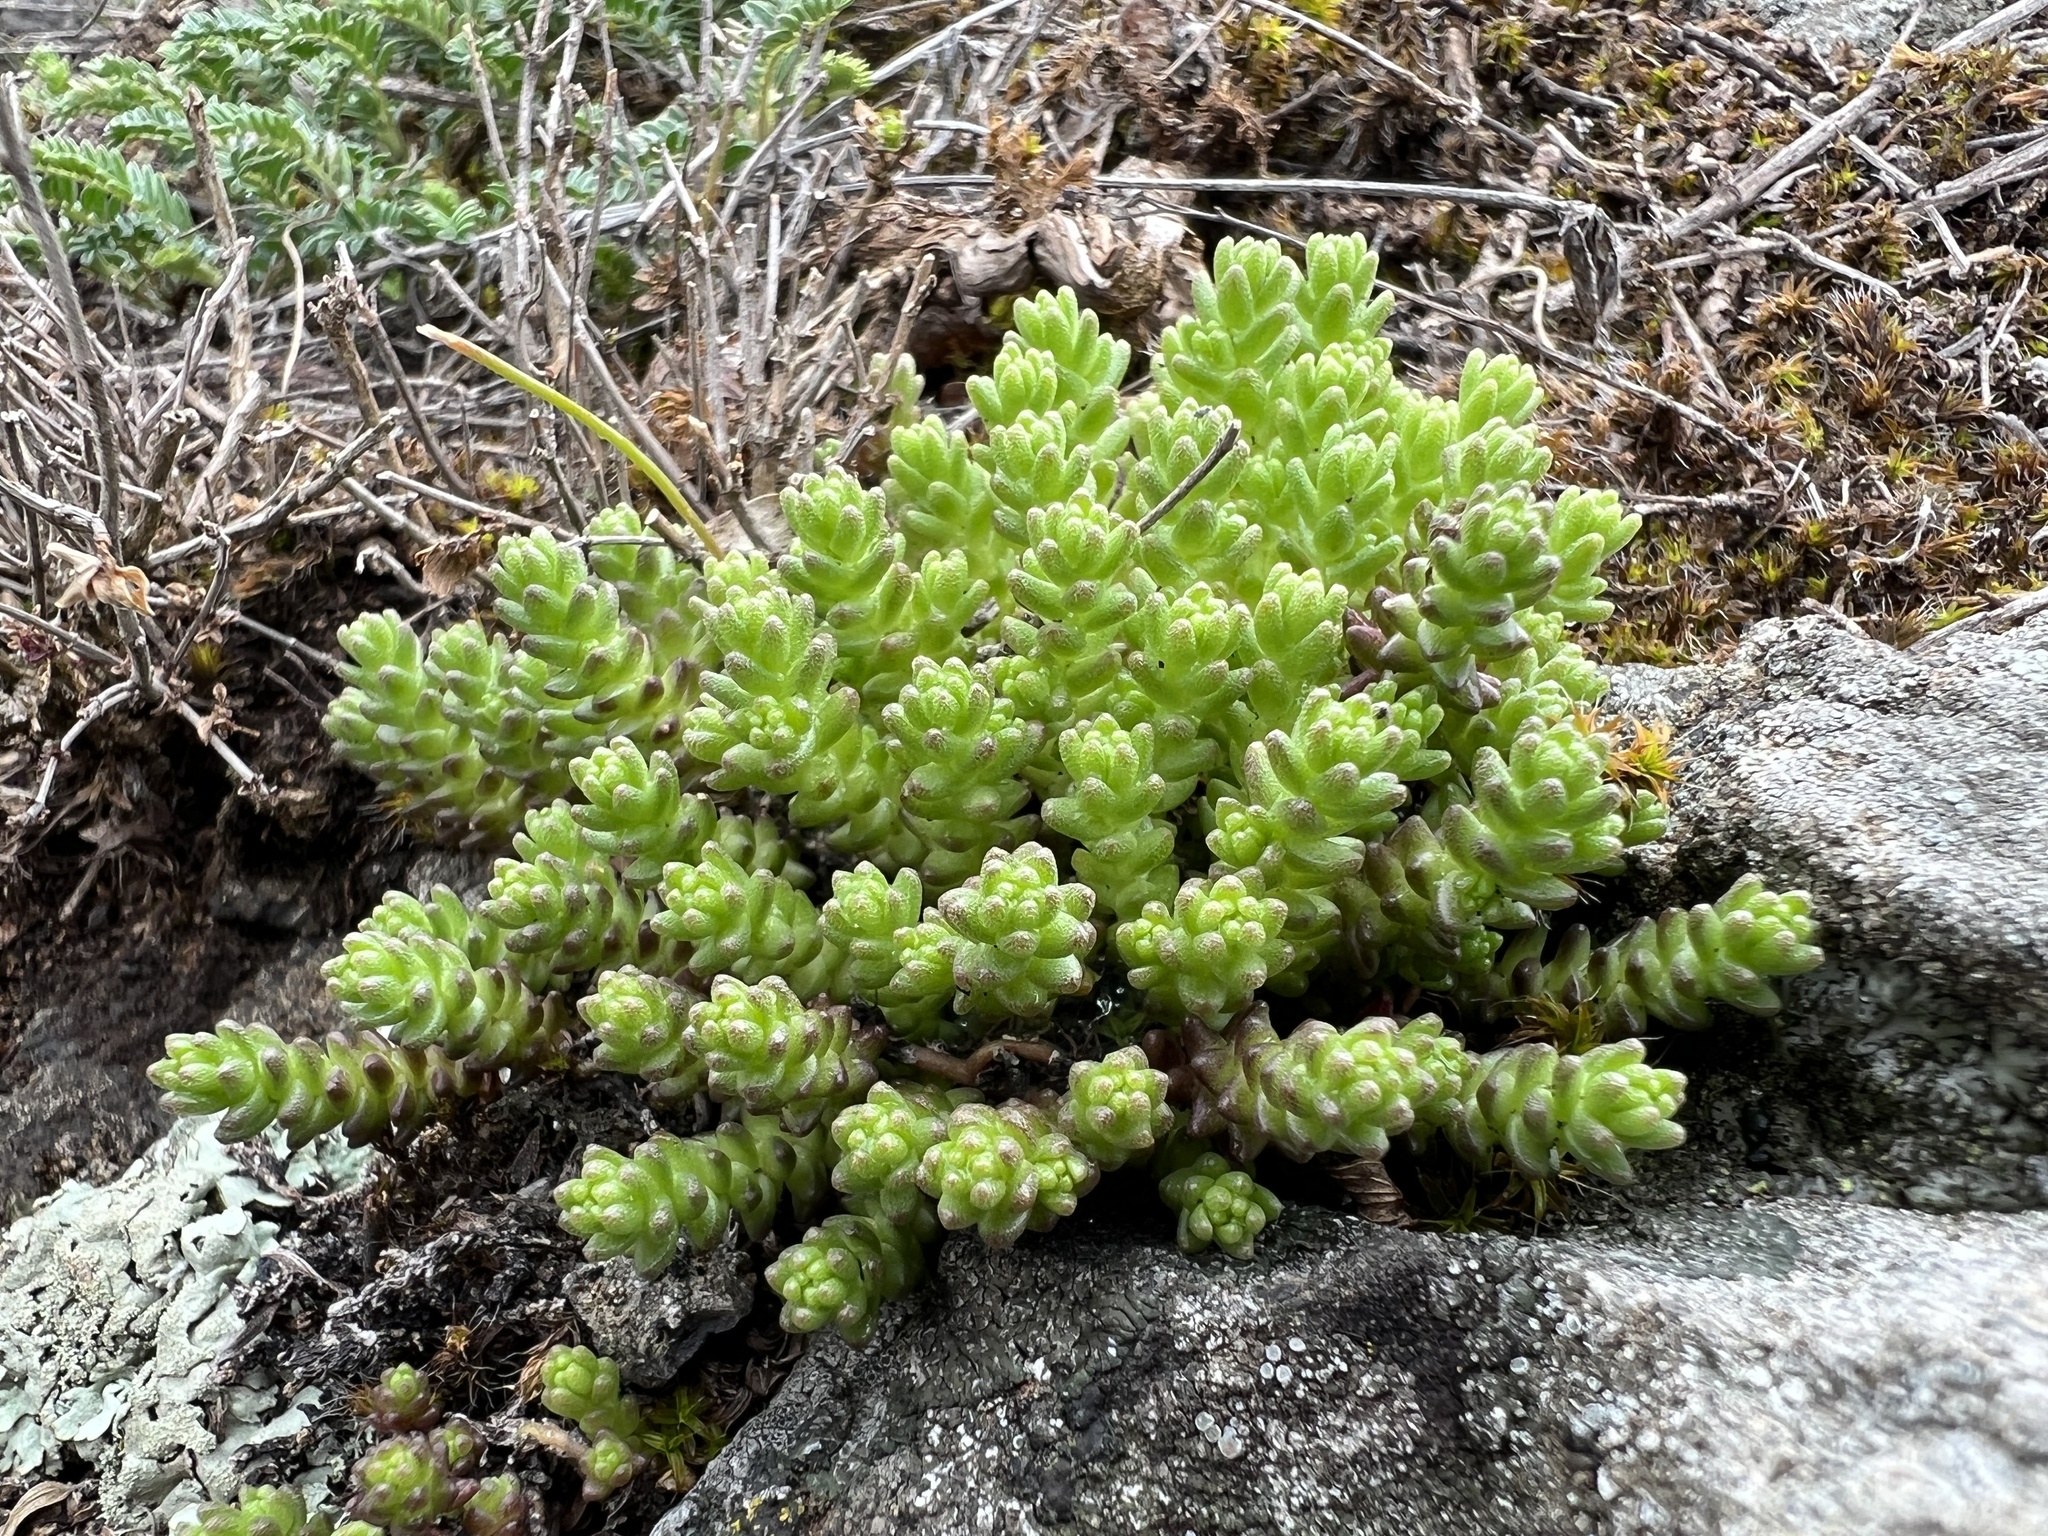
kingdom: Plantae
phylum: Tracheophyta
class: Magnoliopsida
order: Saxifragales
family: Crassulaceae
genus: Sedum
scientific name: Sedum acre
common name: Biting stonecrop
